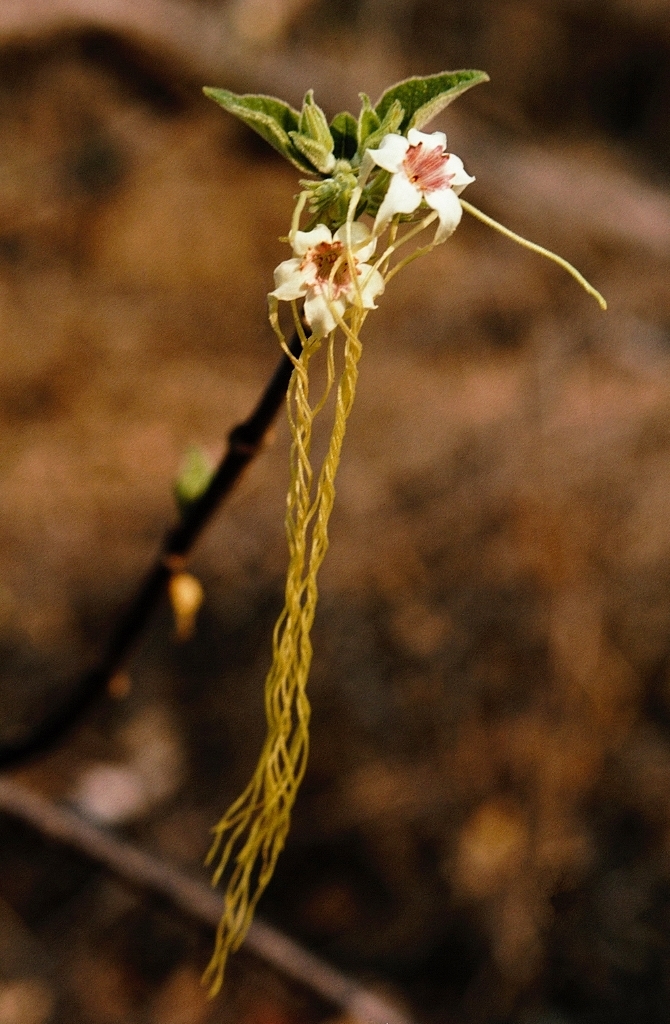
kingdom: Plantae
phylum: Tracheophyta
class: Magnoliopsida
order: Gentianales
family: Apocynaceae
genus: Strophanthus
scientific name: Strophanthus kombe
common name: Kombe
